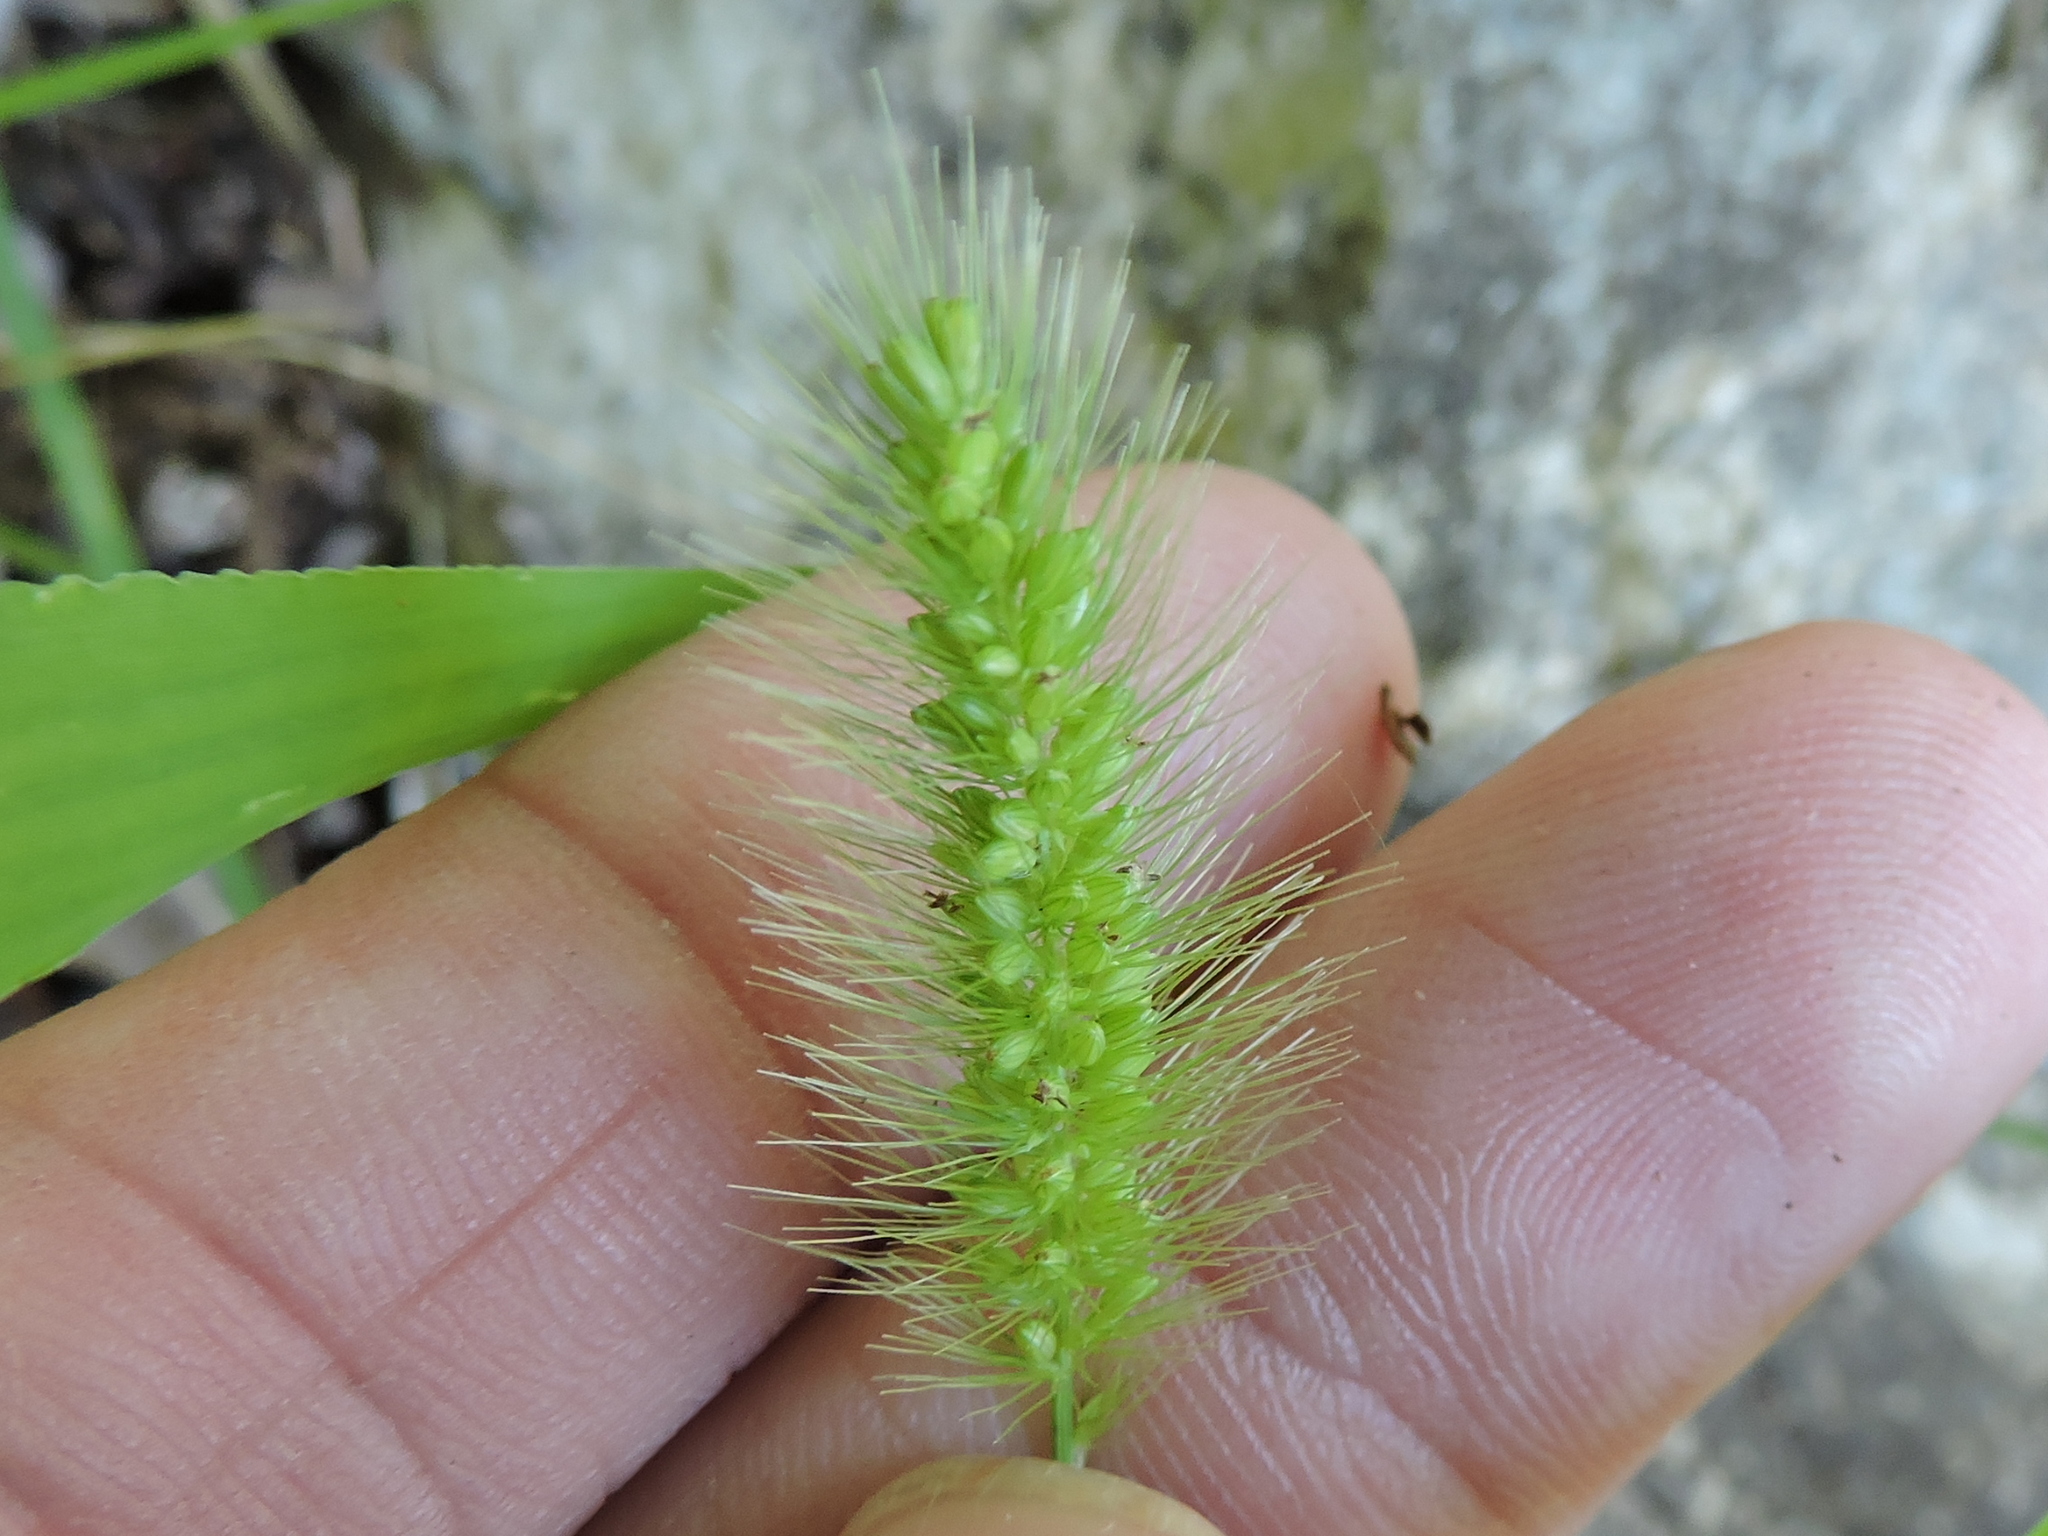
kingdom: Plantae
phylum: Tracheophyta
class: Liliopsida
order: Poales
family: Poaceae
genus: Setaria
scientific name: Setaria viridis
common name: Green bristlegrass
